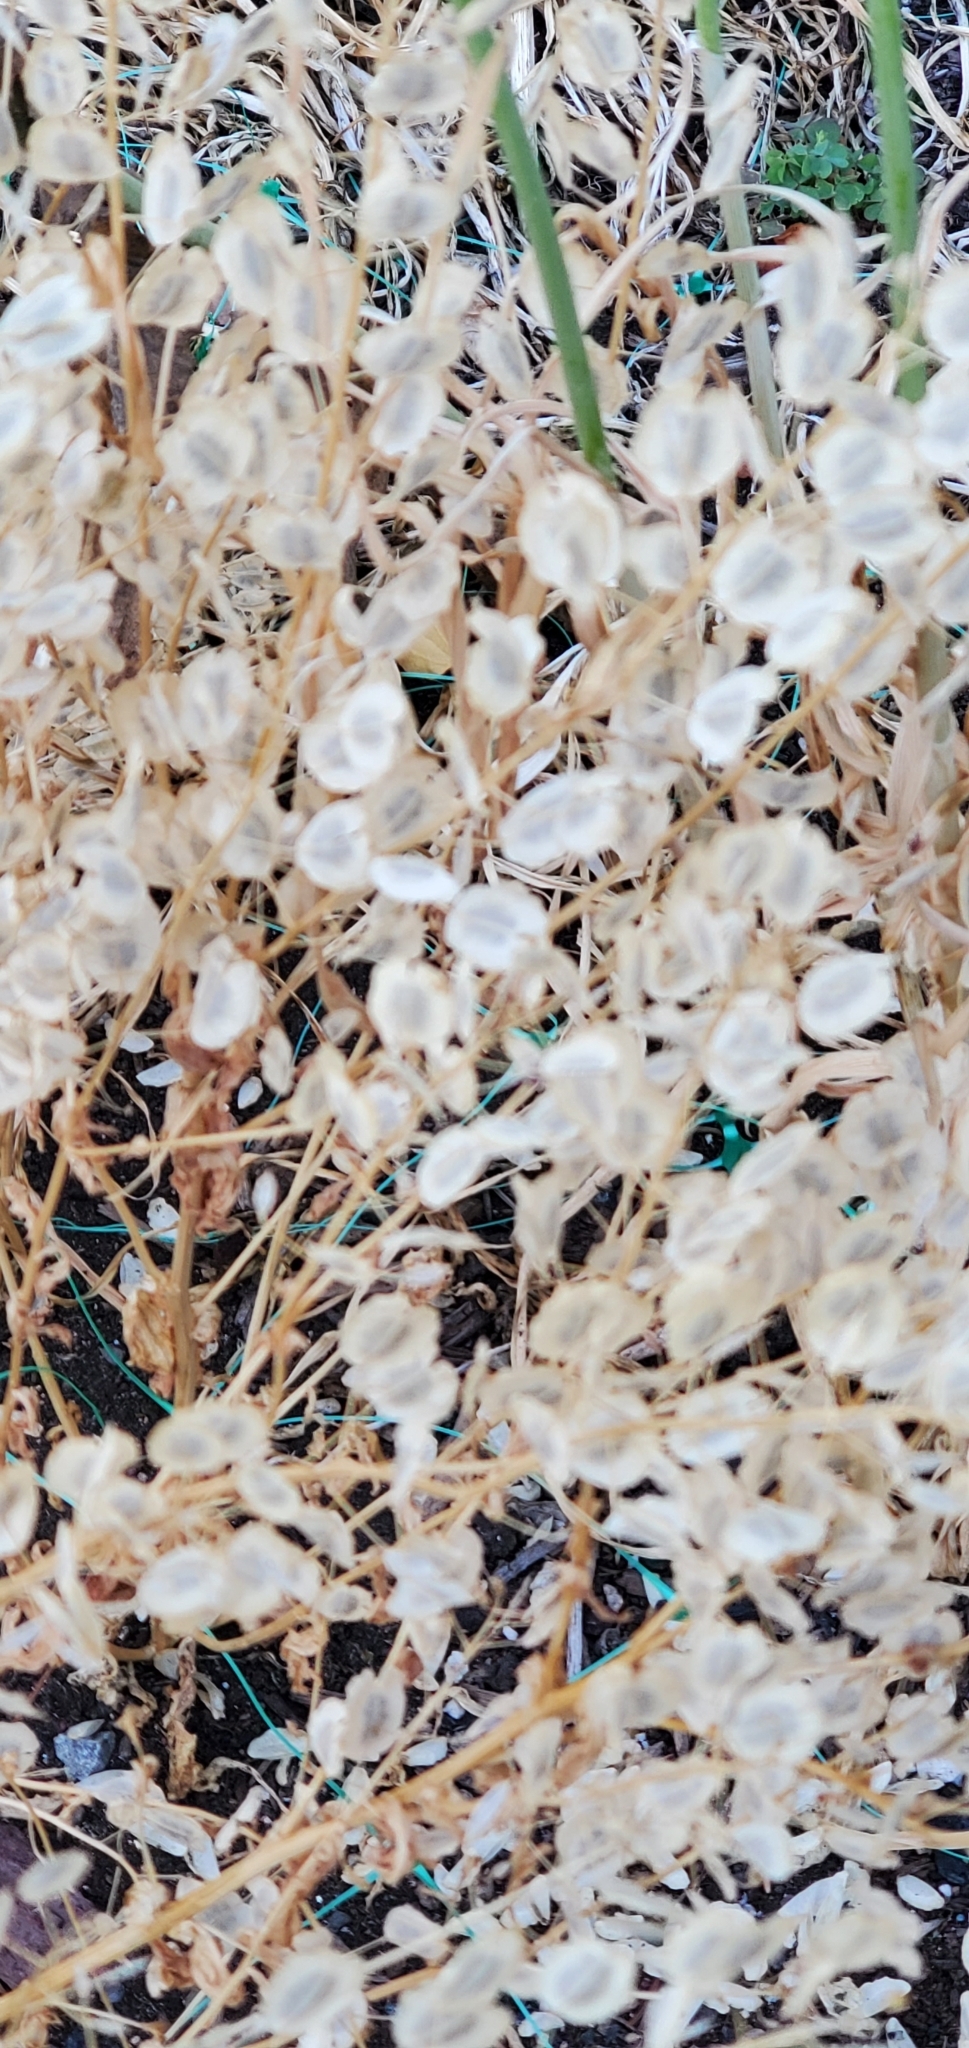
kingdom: Plantae
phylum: Tracheophyta
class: Magnoliopsida
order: Brassicales
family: Brassicaceae
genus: Thlaspi
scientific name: Thlaspi arvense
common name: Field pennycress
